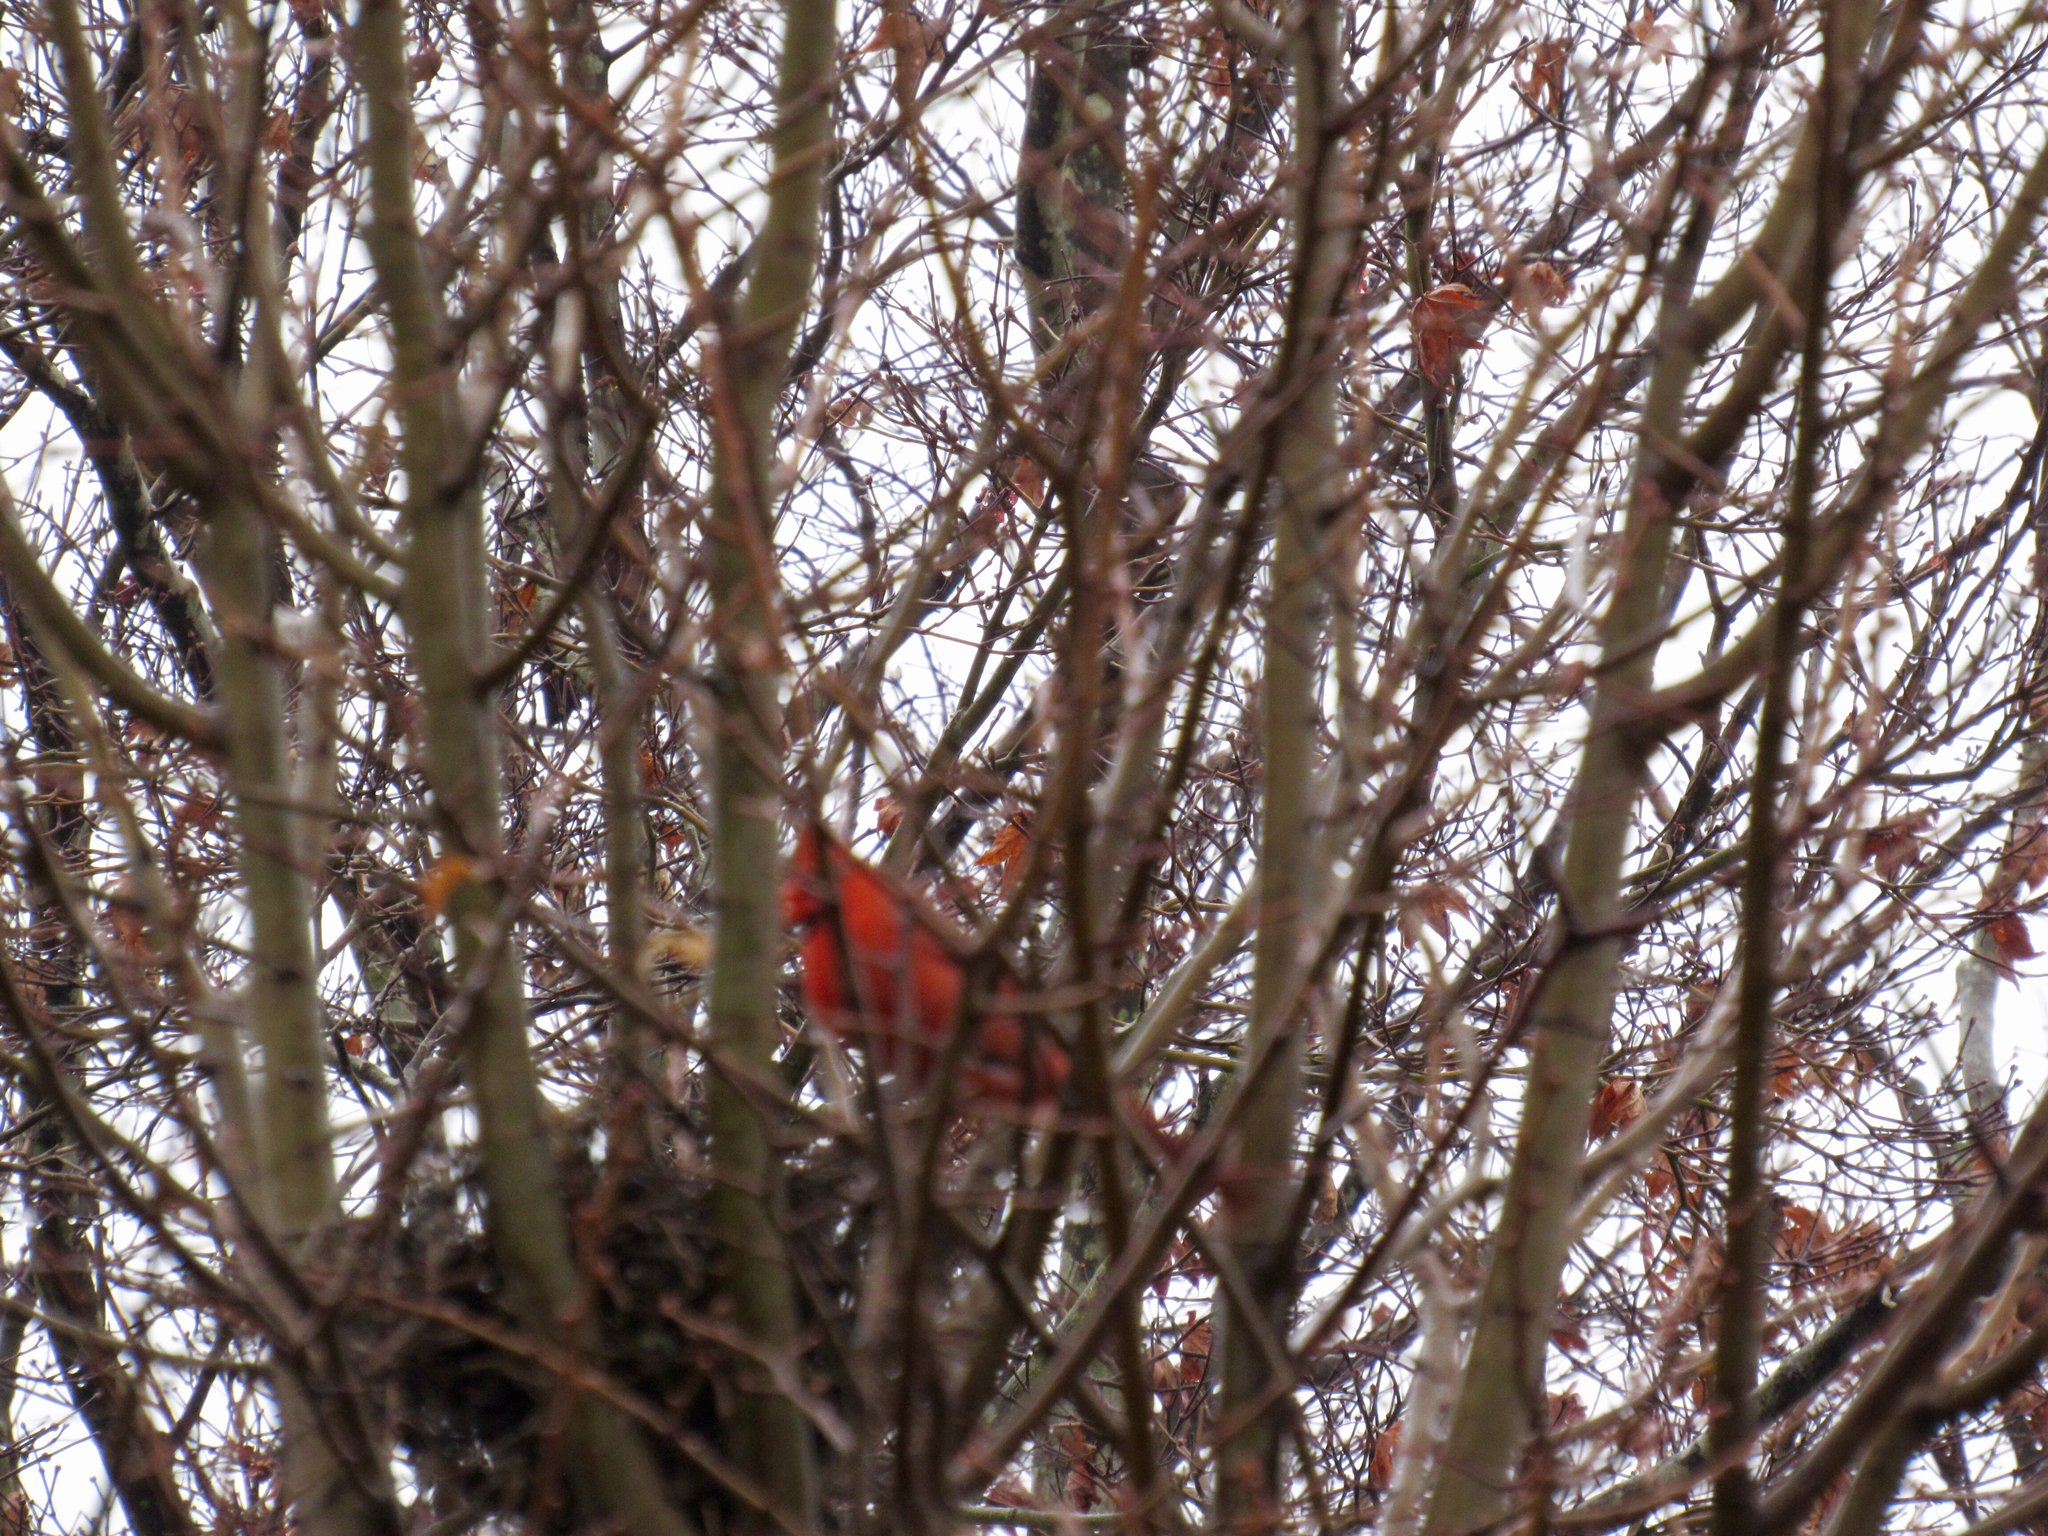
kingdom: Animalia
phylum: Chordata
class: Aves
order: Passeriformes
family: Cardinalidae
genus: Cardinalis
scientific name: Cardinalis cardinalis
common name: Northern cardinal
